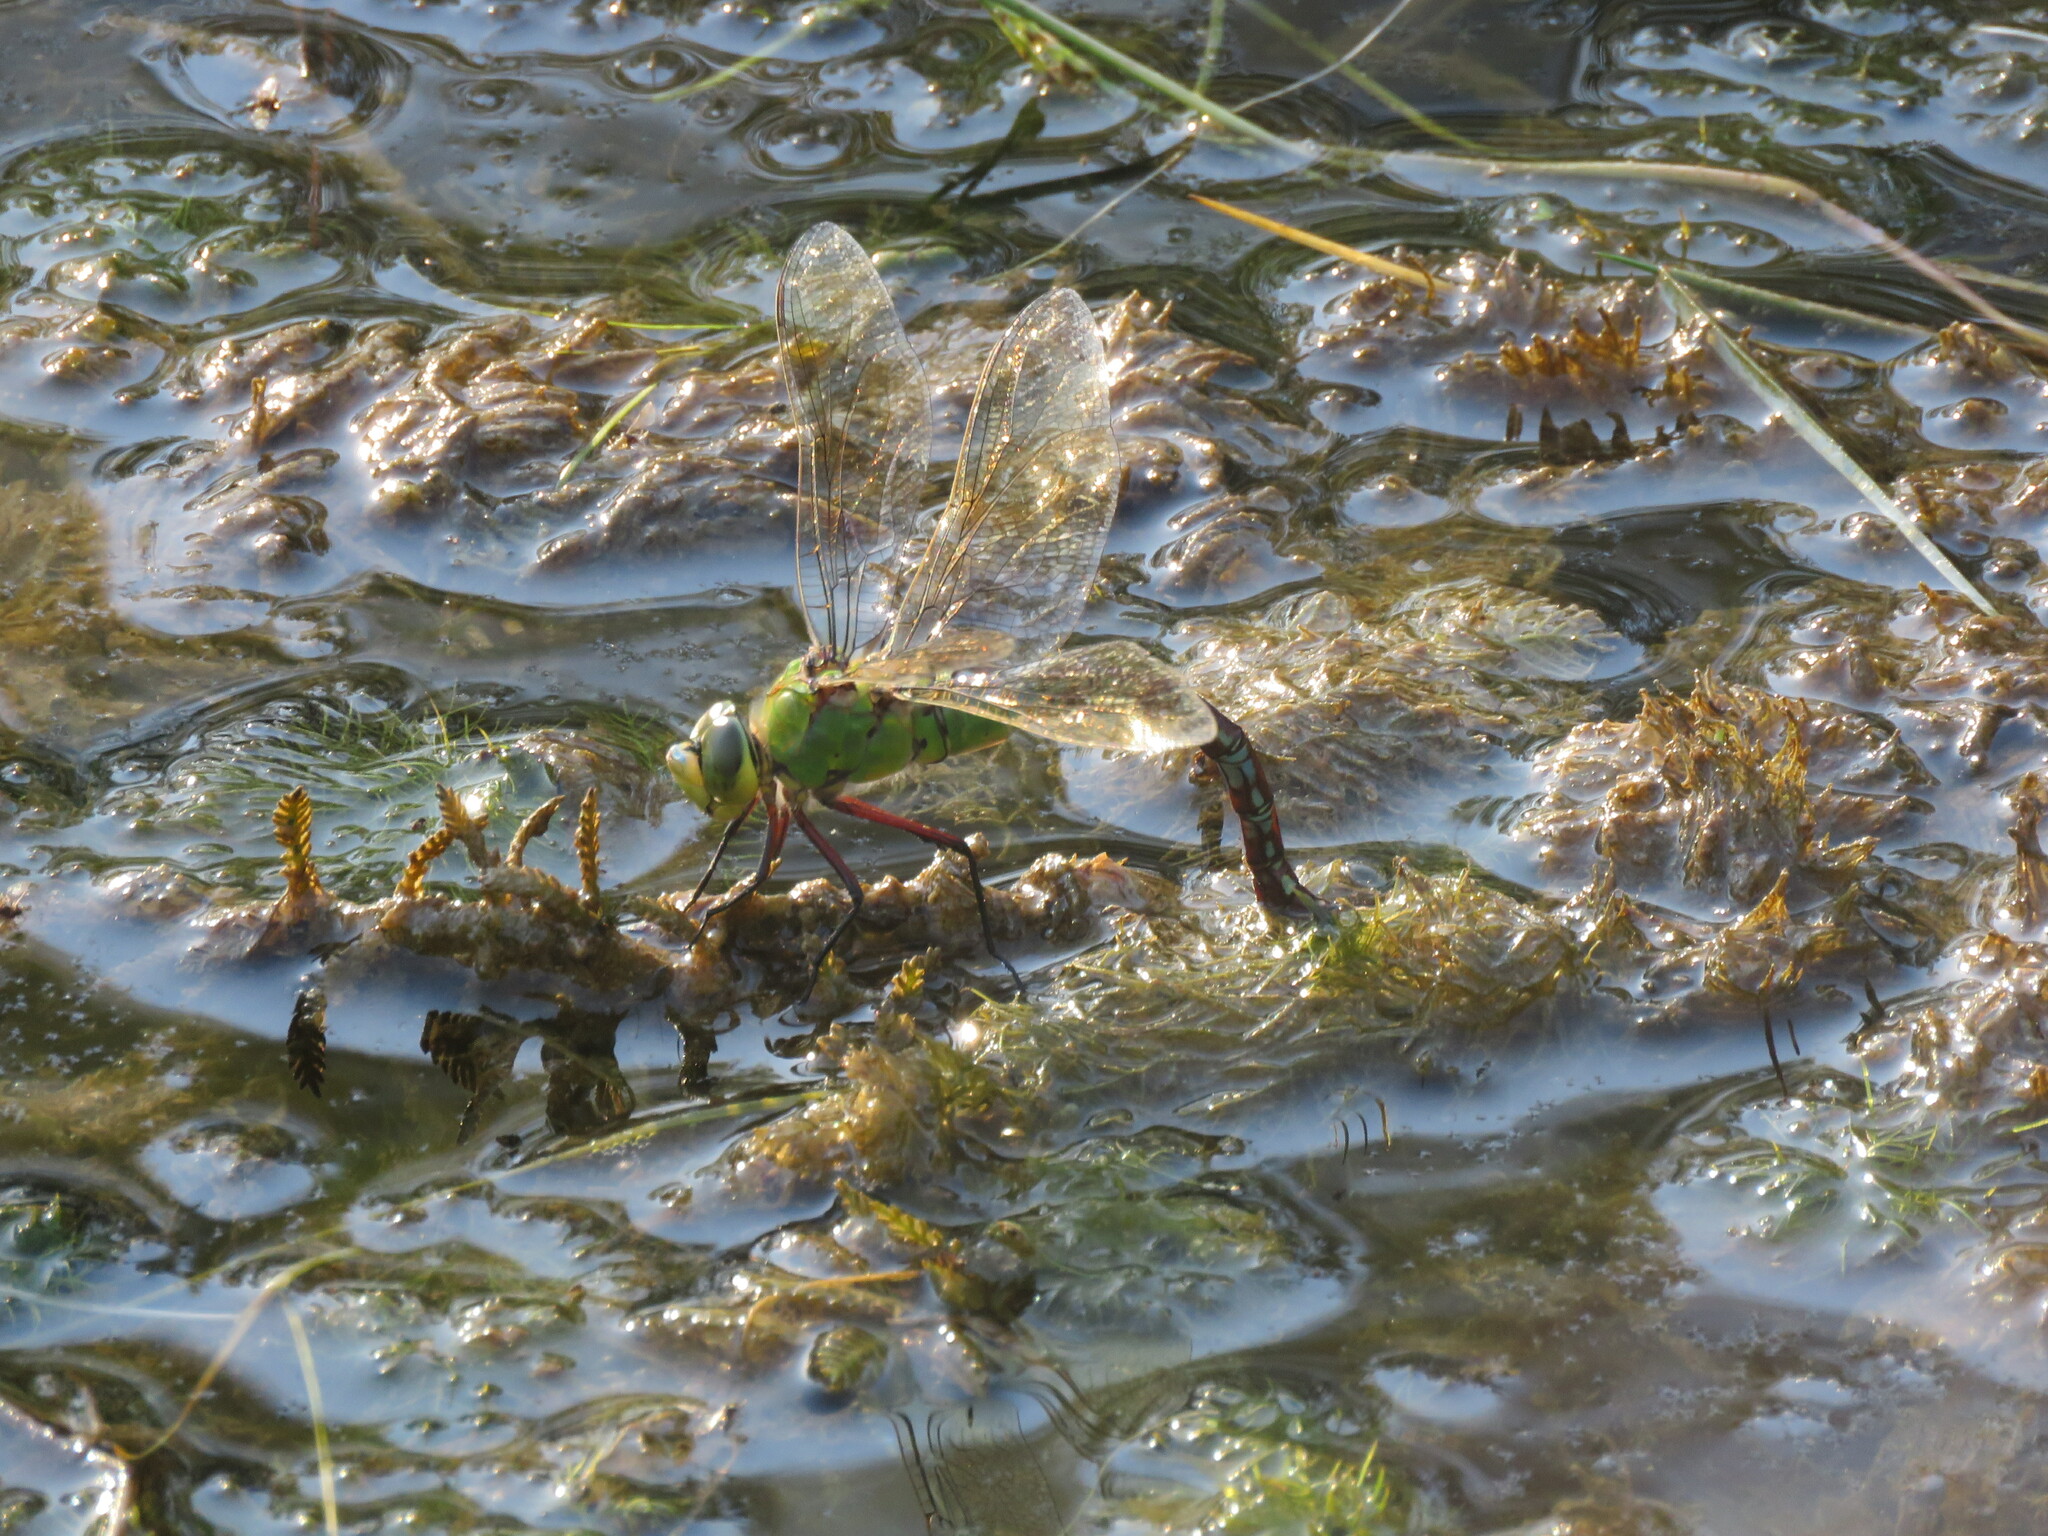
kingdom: Animalia
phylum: Arthropoda
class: Insecta
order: Odonata
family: Aeshnidae
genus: Anax
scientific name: Anax imperator
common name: Emperor dragonfly
